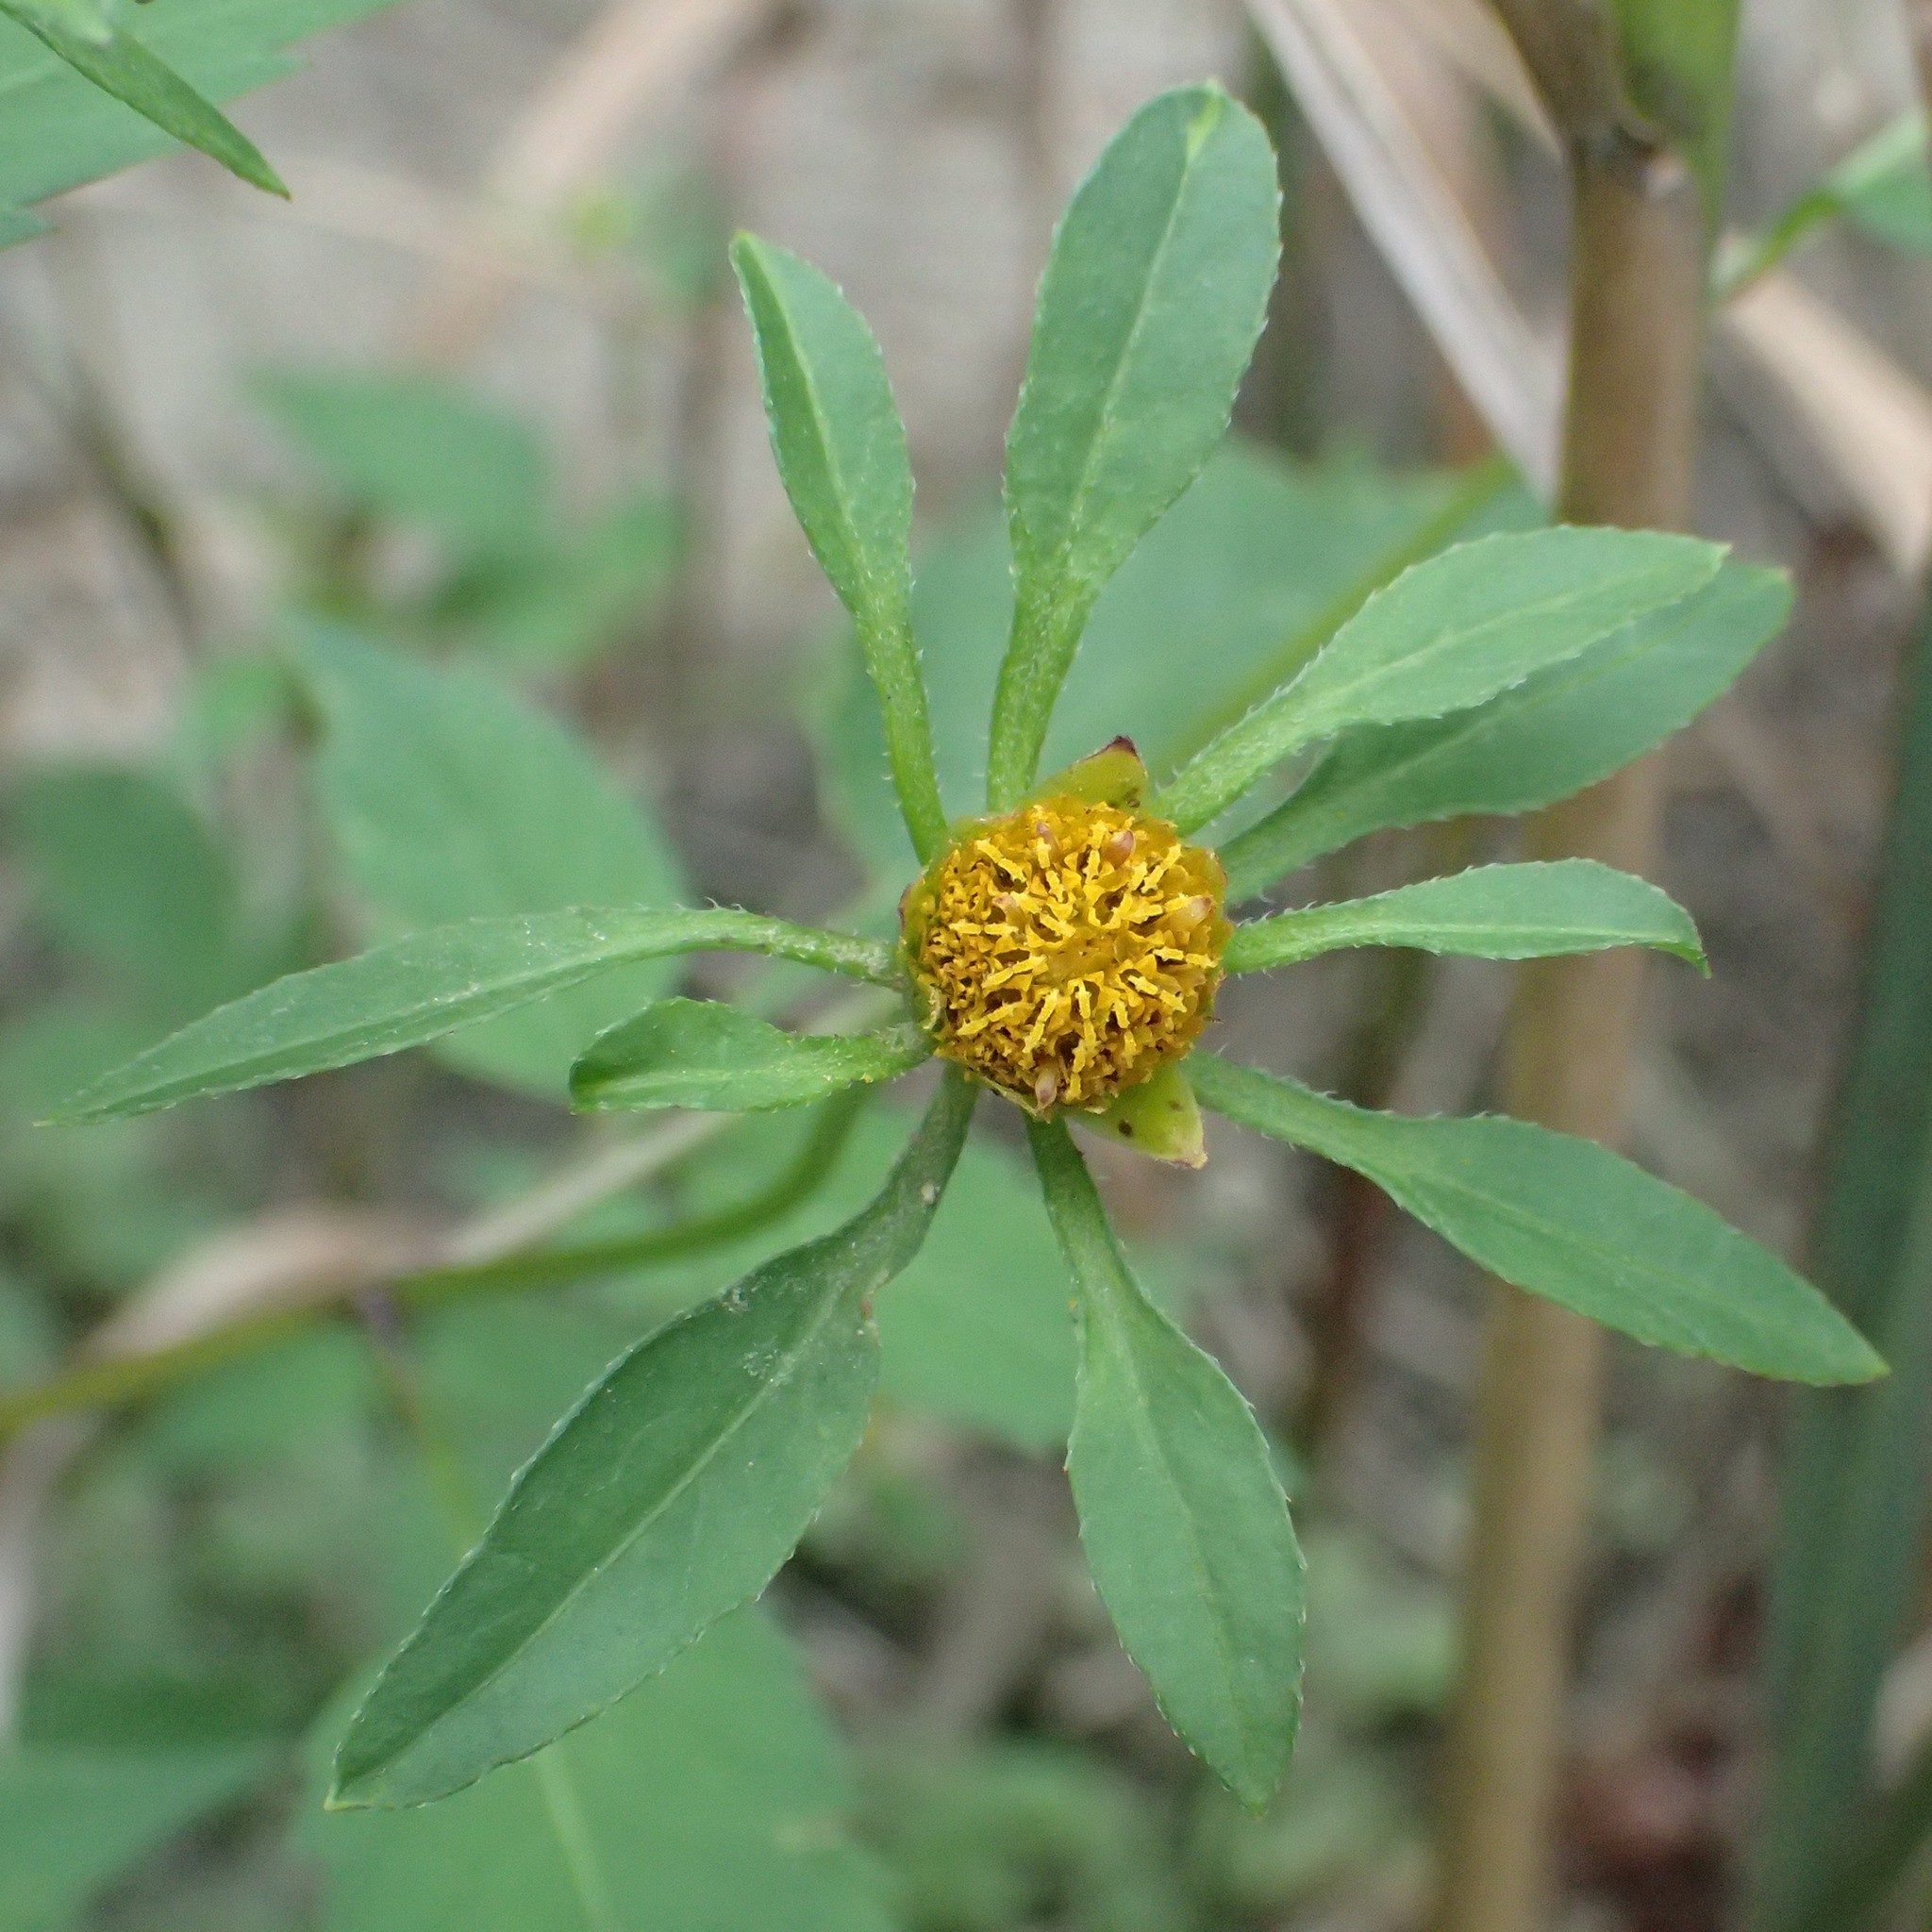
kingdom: Plantae
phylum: Tracheophyta
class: Magnoliopsida
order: Asterales
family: Asteraceae
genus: Bidens
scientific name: Bidens frondosa
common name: Beggarticks
